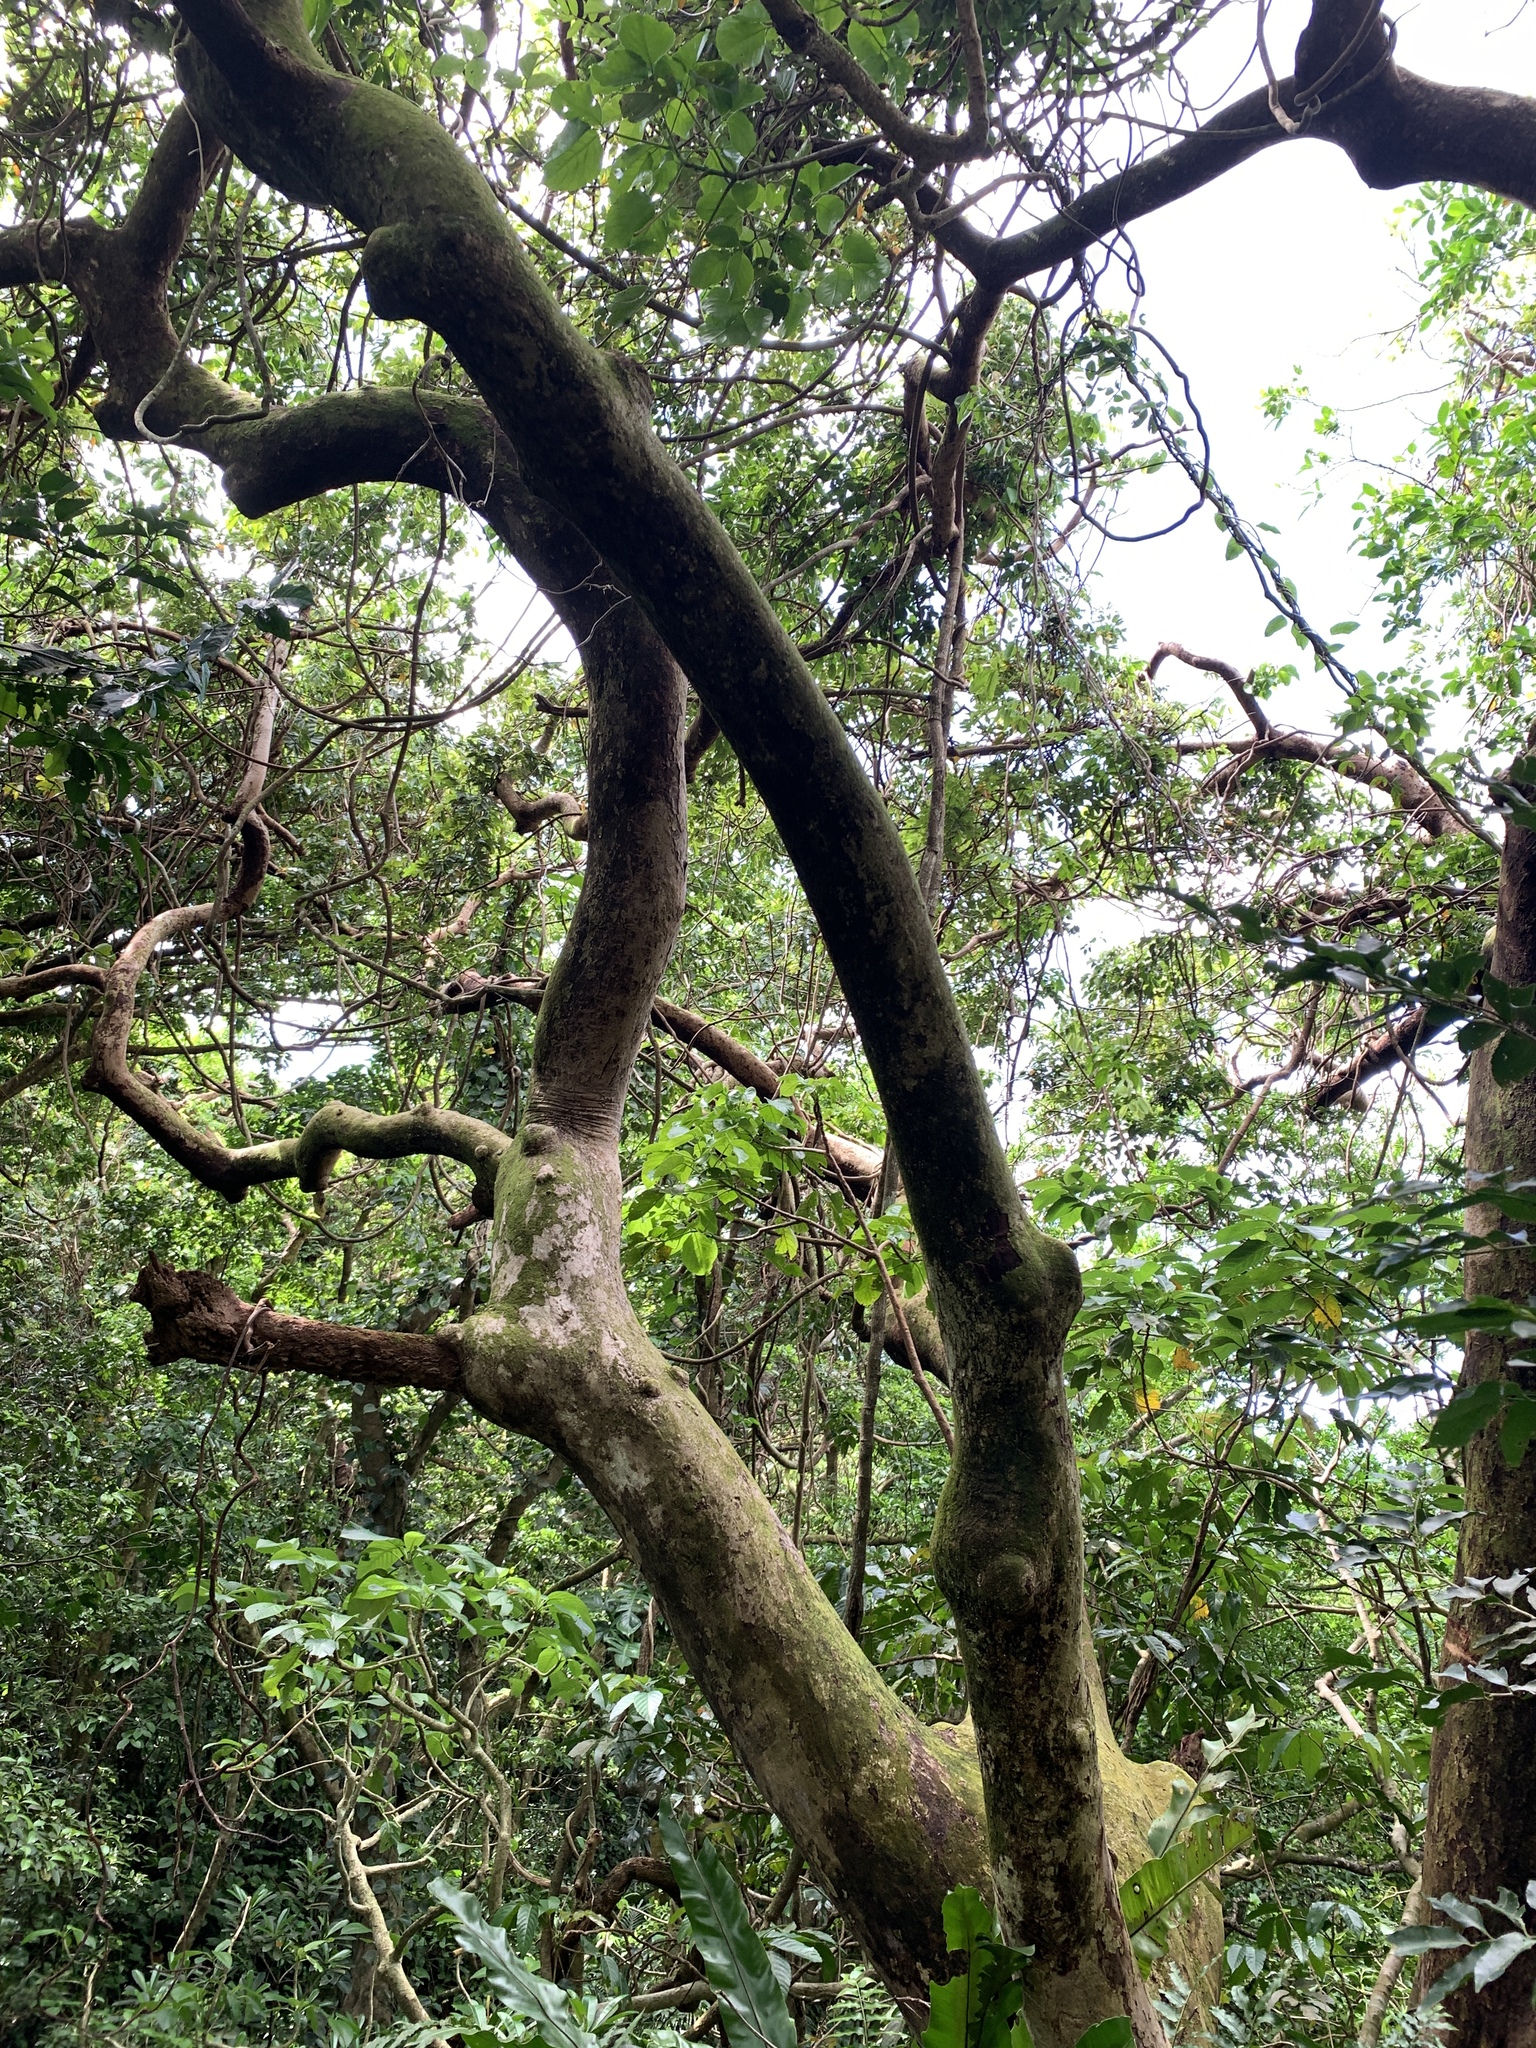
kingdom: Plantae
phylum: Tracheophyta
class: Magnoliopsida
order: Malpighiales
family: Phyllanthaceae
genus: Bischofia
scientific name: Bischofia javanica
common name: Javanese bishopwood
